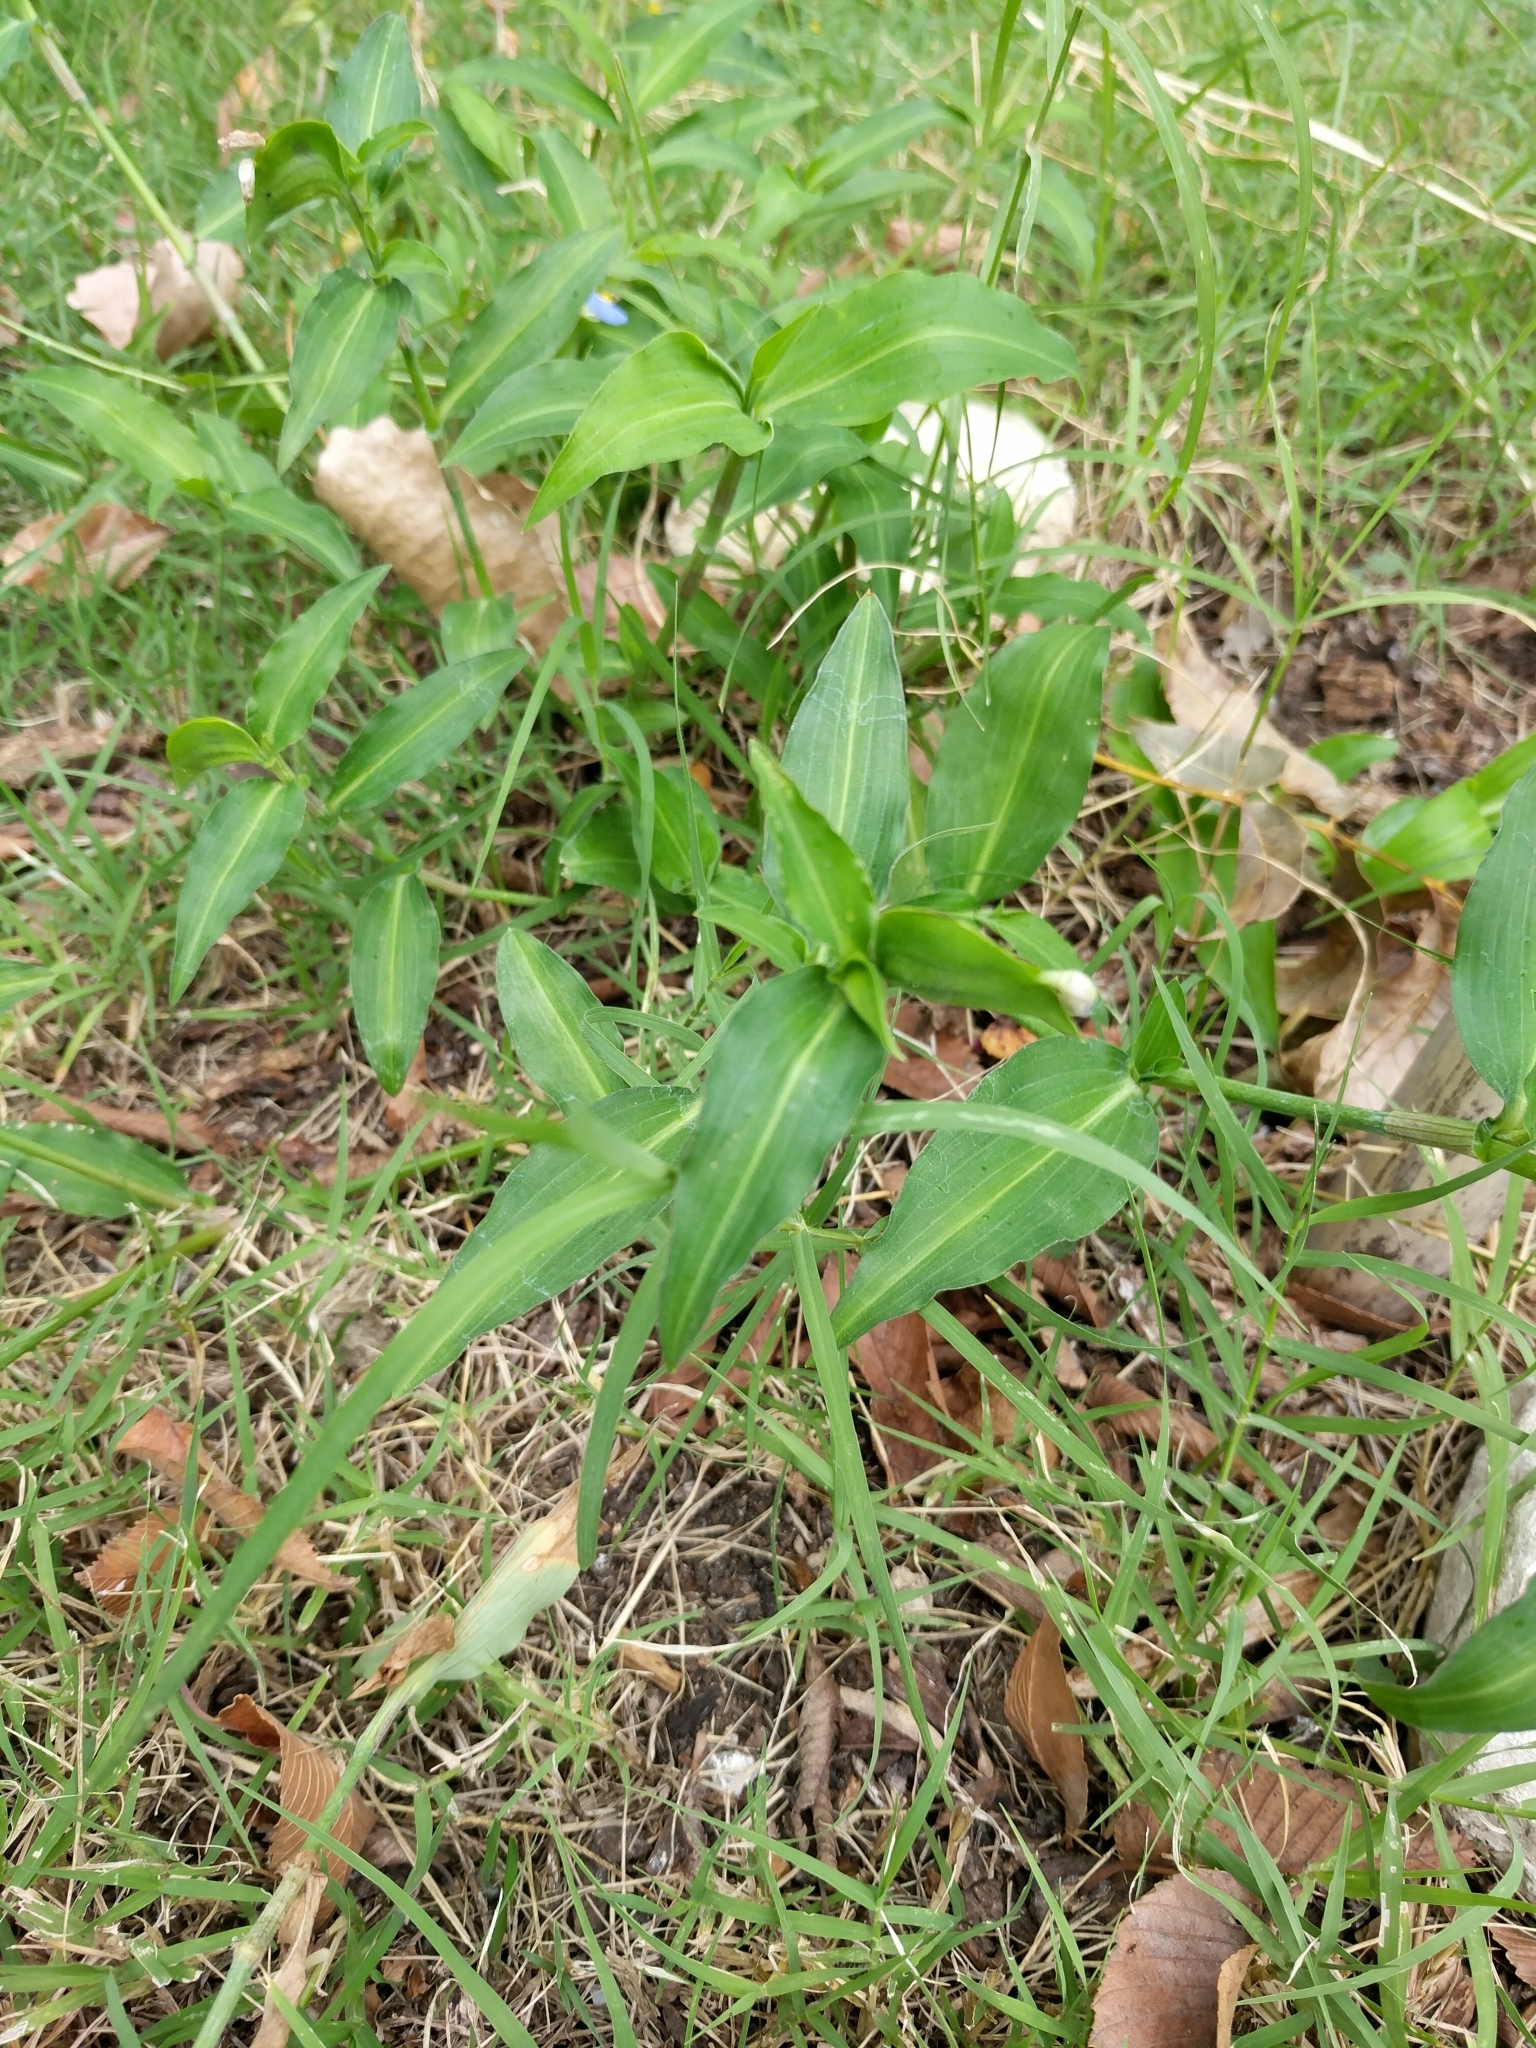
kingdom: Plantae
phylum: Tracheophyta
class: Liliopsida
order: Commelinales
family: Commelinaceae
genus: Commelina
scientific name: Commelina erecta
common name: Blousel blommetjie
